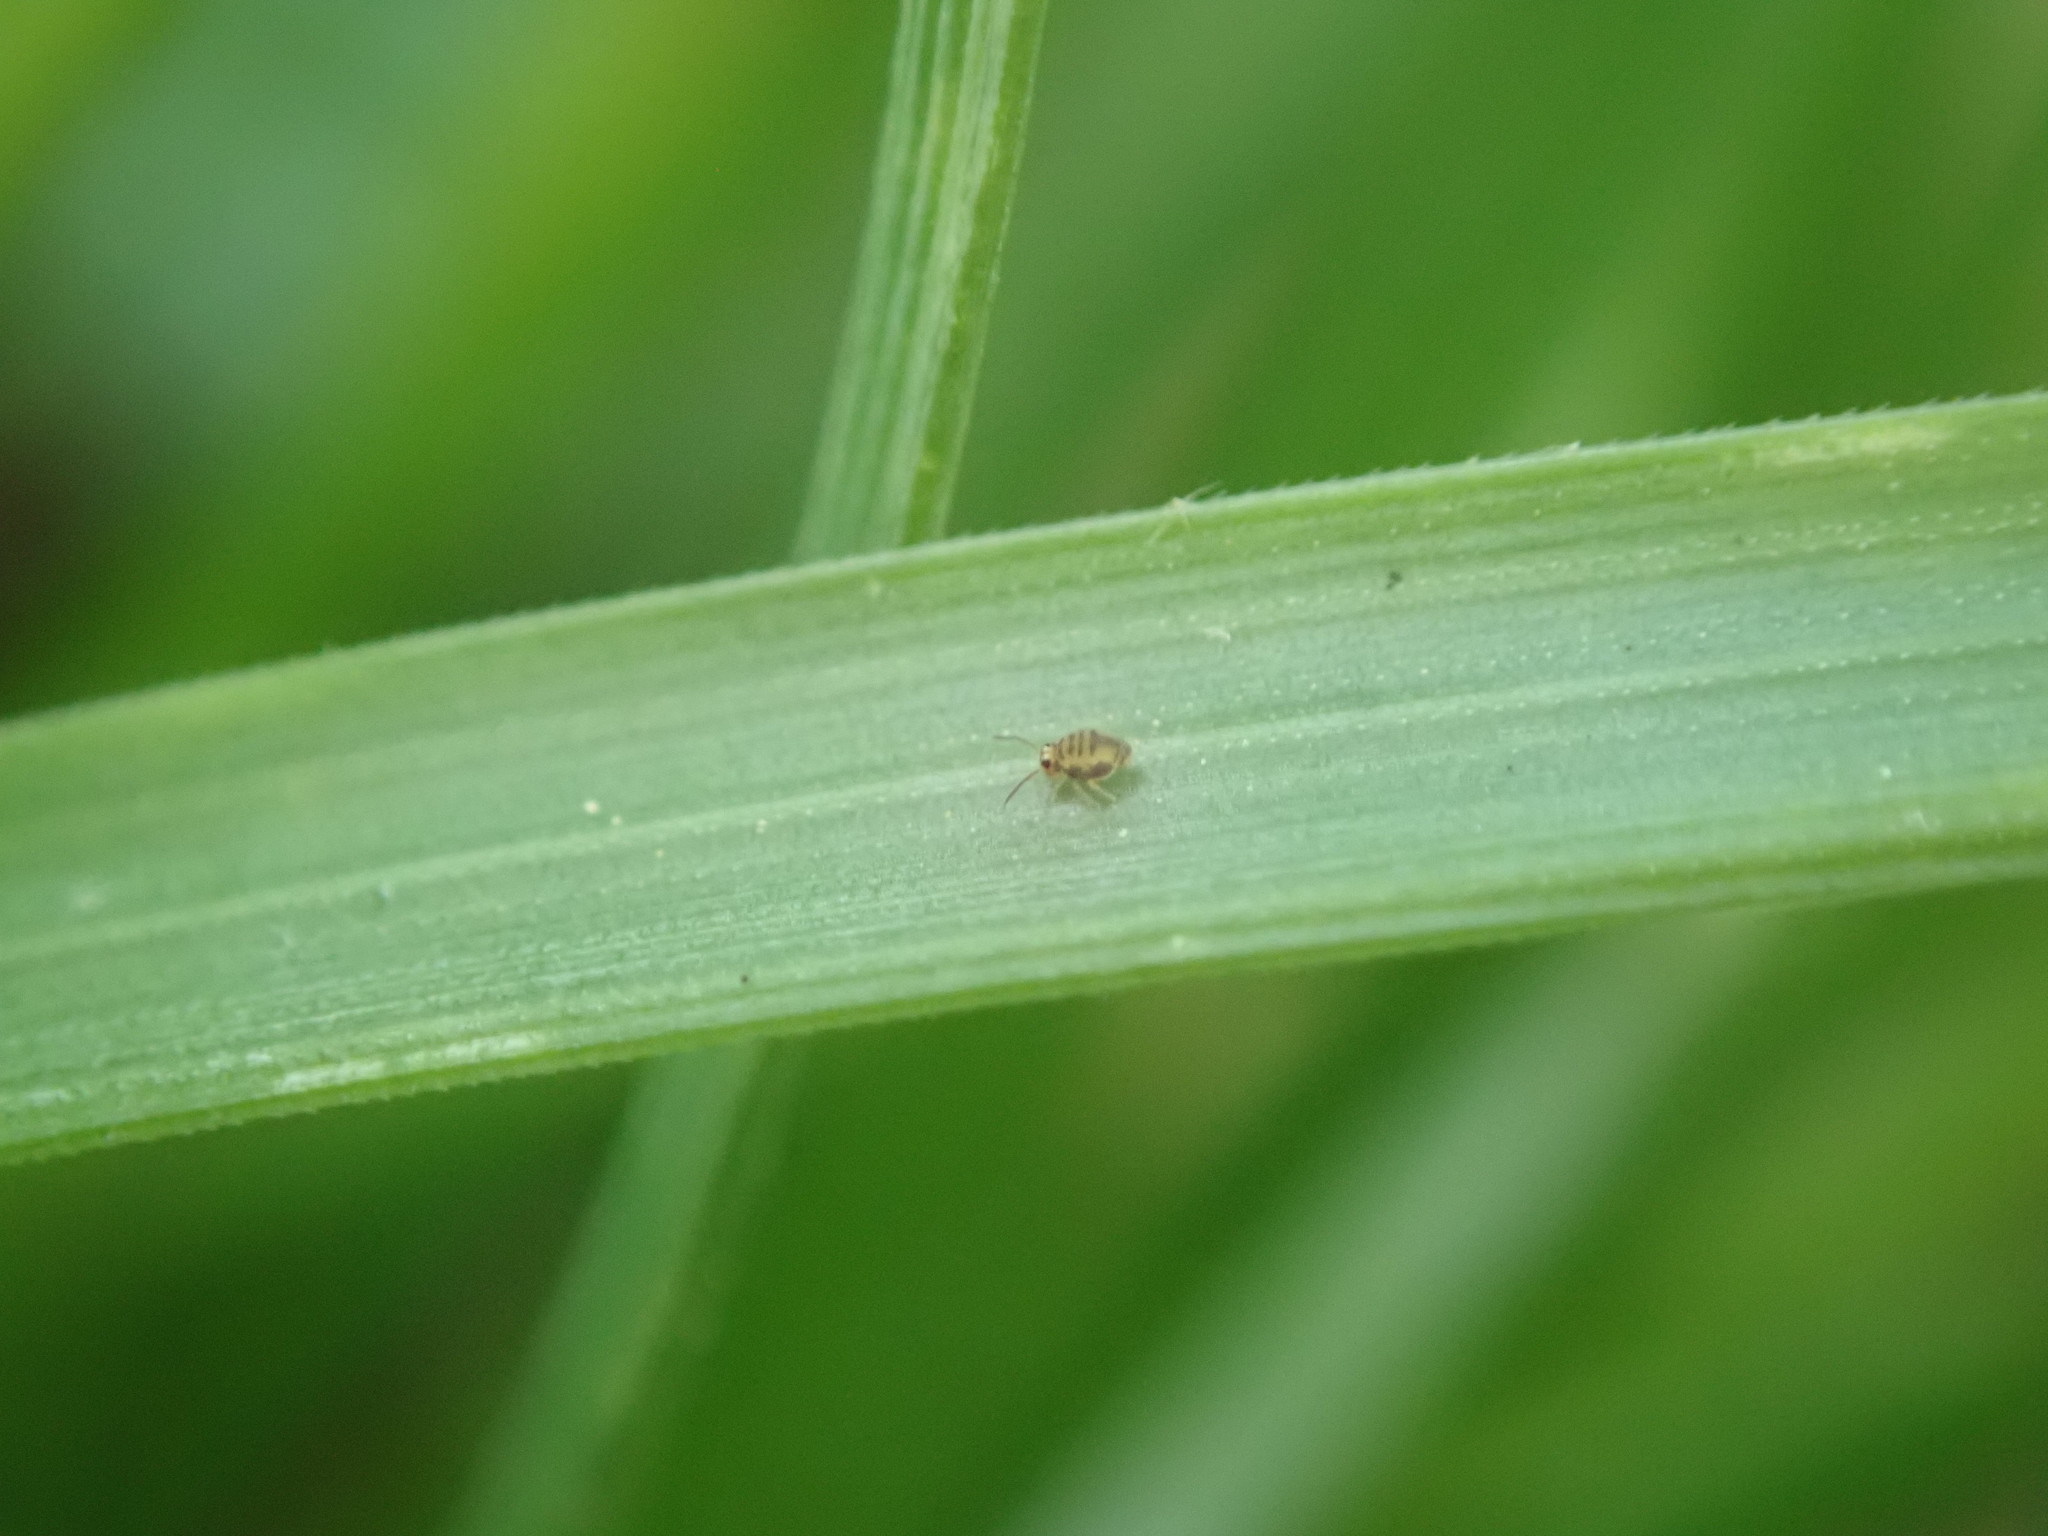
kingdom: Animalia
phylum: Arthropoda
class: Collembola
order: Symphypleona
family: Katiannidae
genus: Sminthurinus
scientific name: Sminthurinus henshawi
